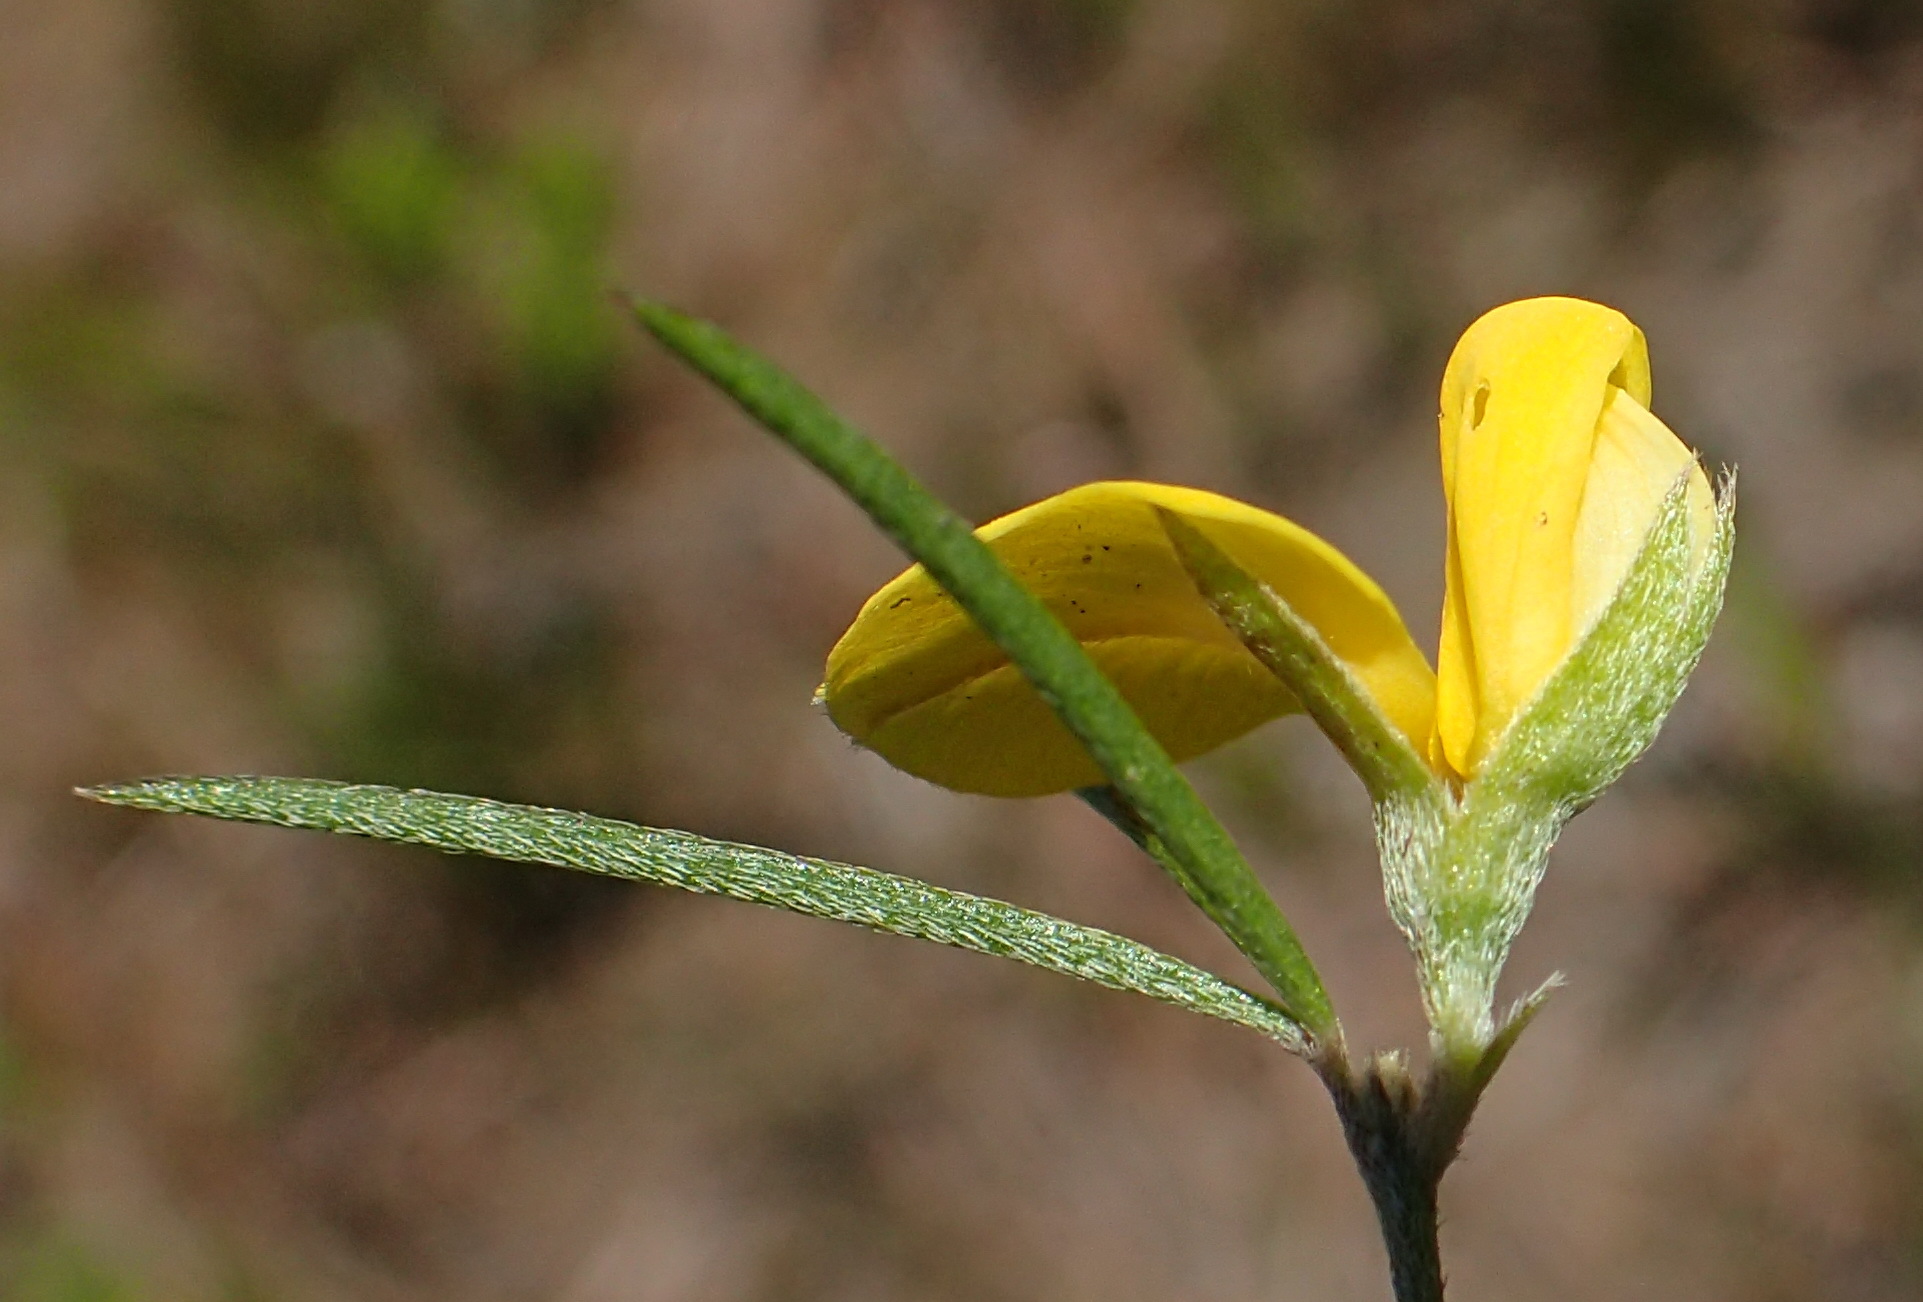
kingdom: Plantae
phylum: Tracheophyta
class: Magnoliopsida
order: Fabales
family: Fabaceae
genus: Argyrolobium
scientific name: Argyrolobium filifolia
